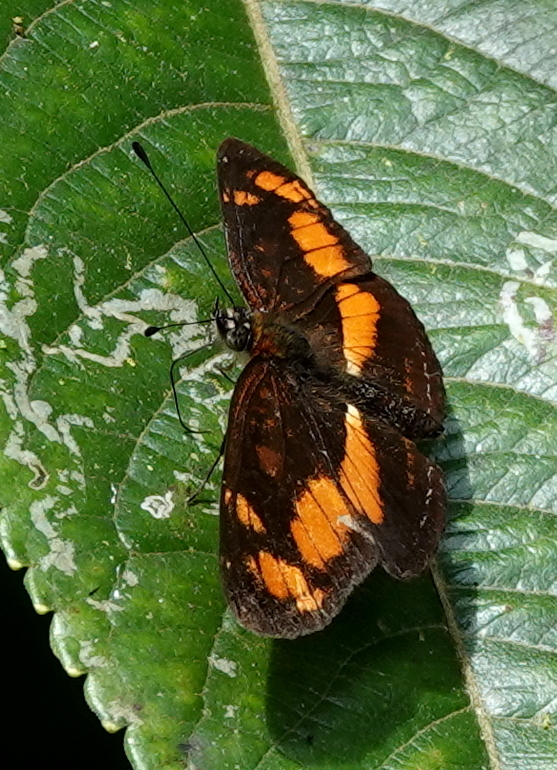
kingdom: Animalia
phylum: Arthropoda
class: Insecta
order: Lepidoptera
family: Nymphalidae
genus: Eresia
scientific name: Eresia polina
